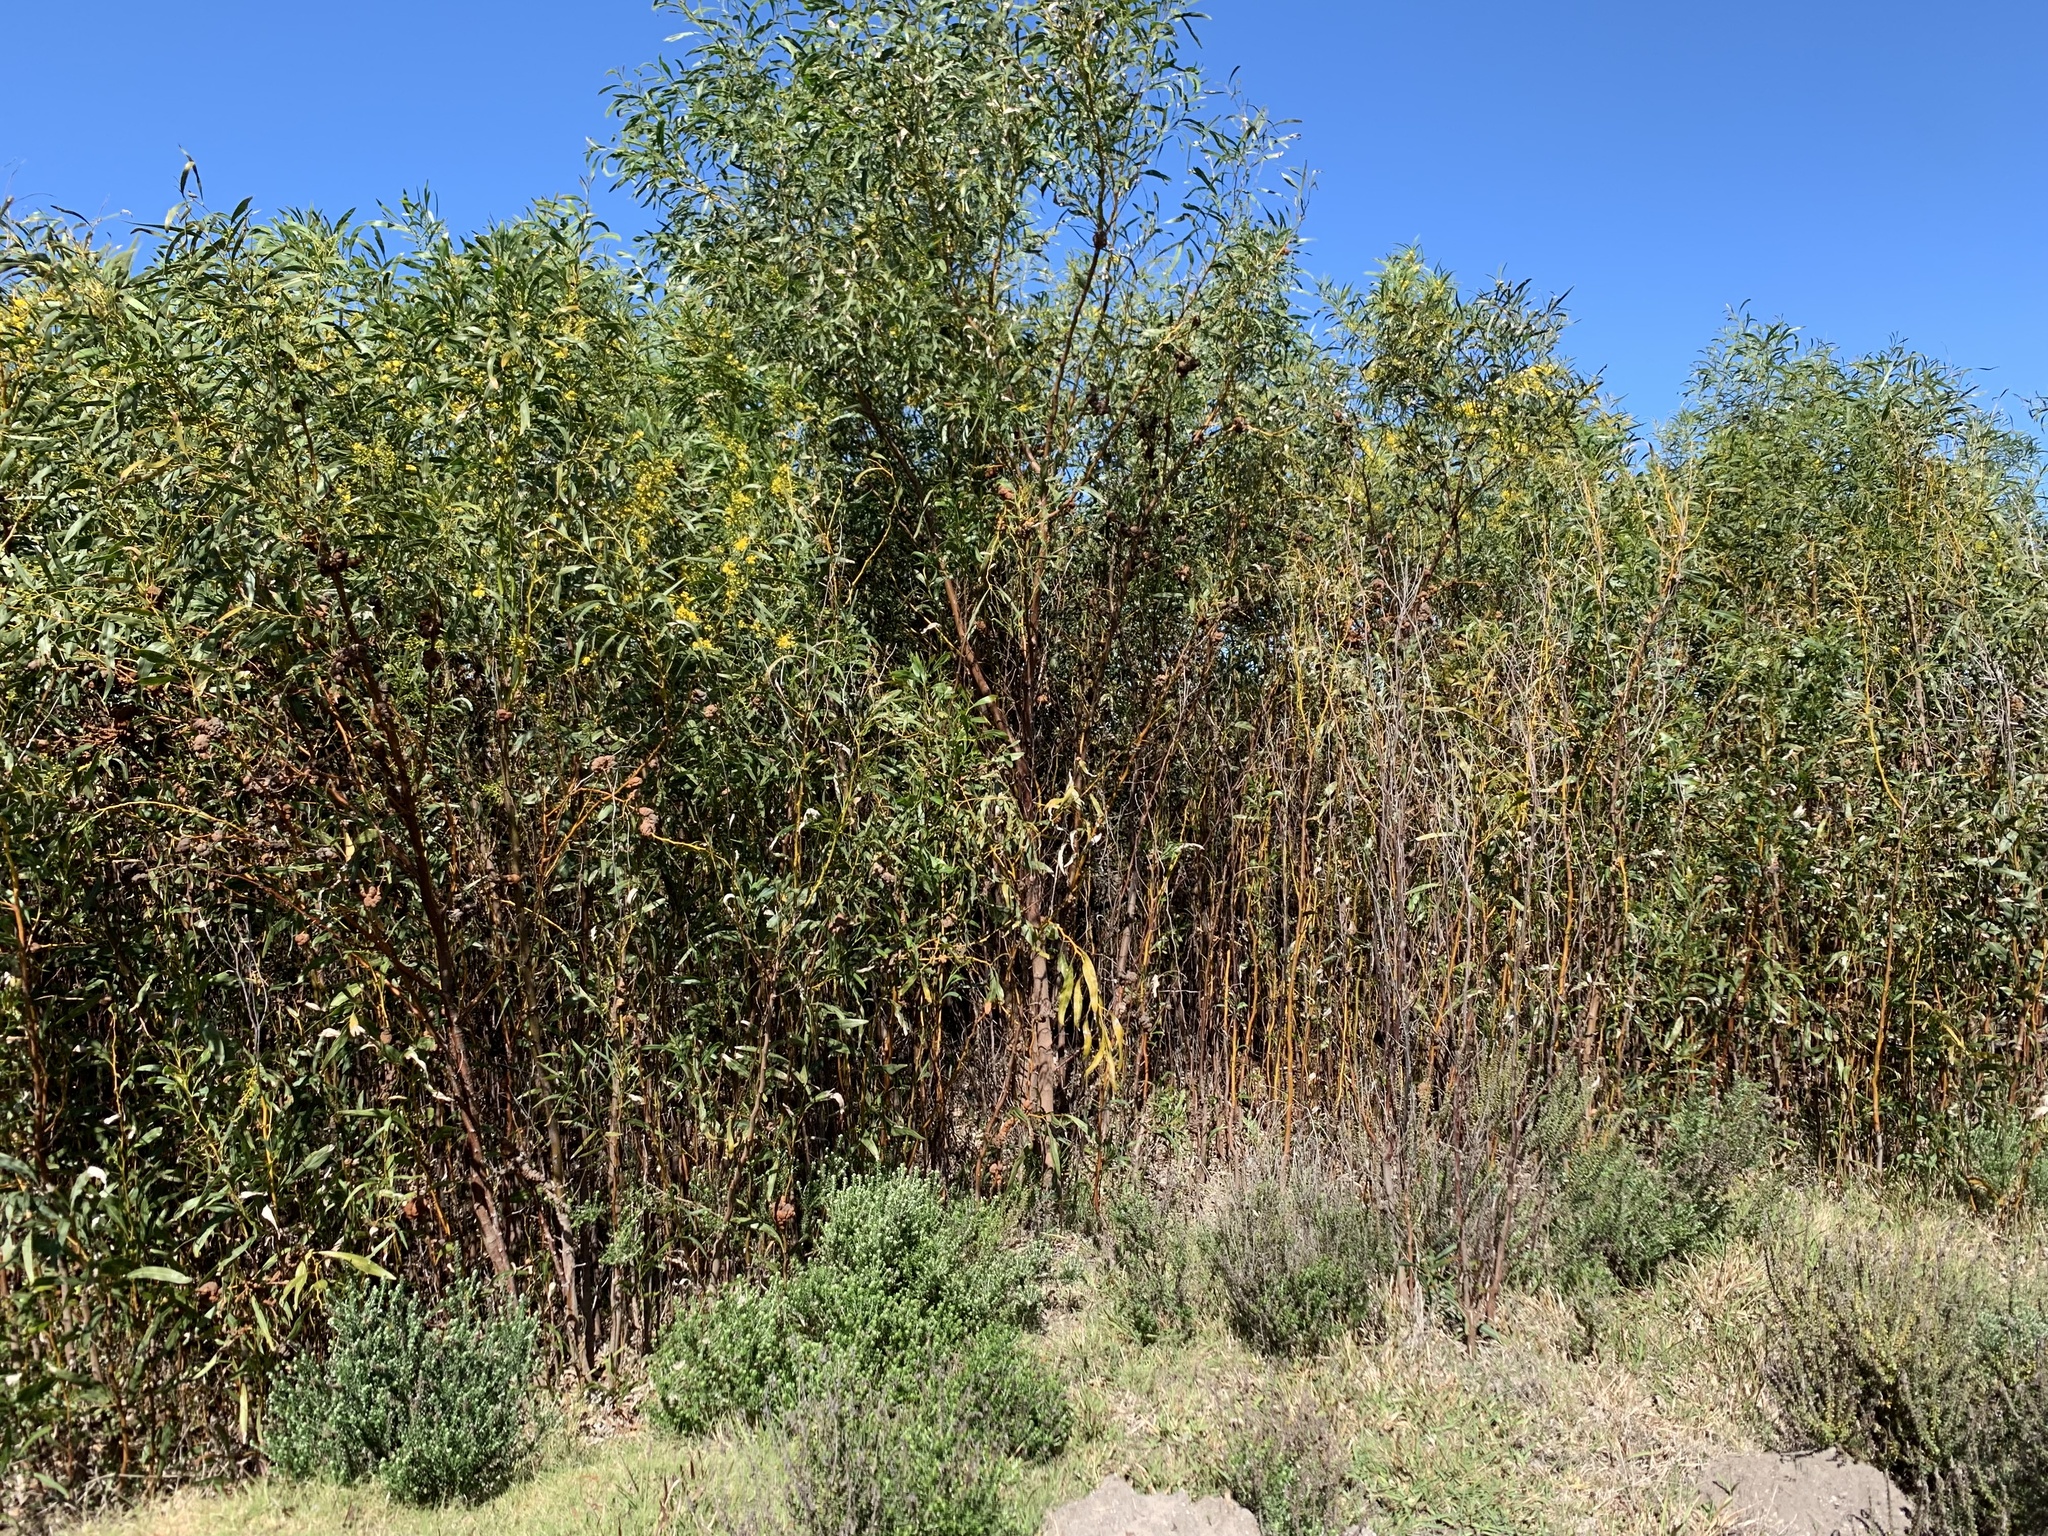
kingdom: Plantae
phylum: Tracheophyta
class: Magnoliopsida
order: Fabales
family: Fabaceae
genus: Acacia
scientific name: Acacia saligna
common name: Orange wattle
